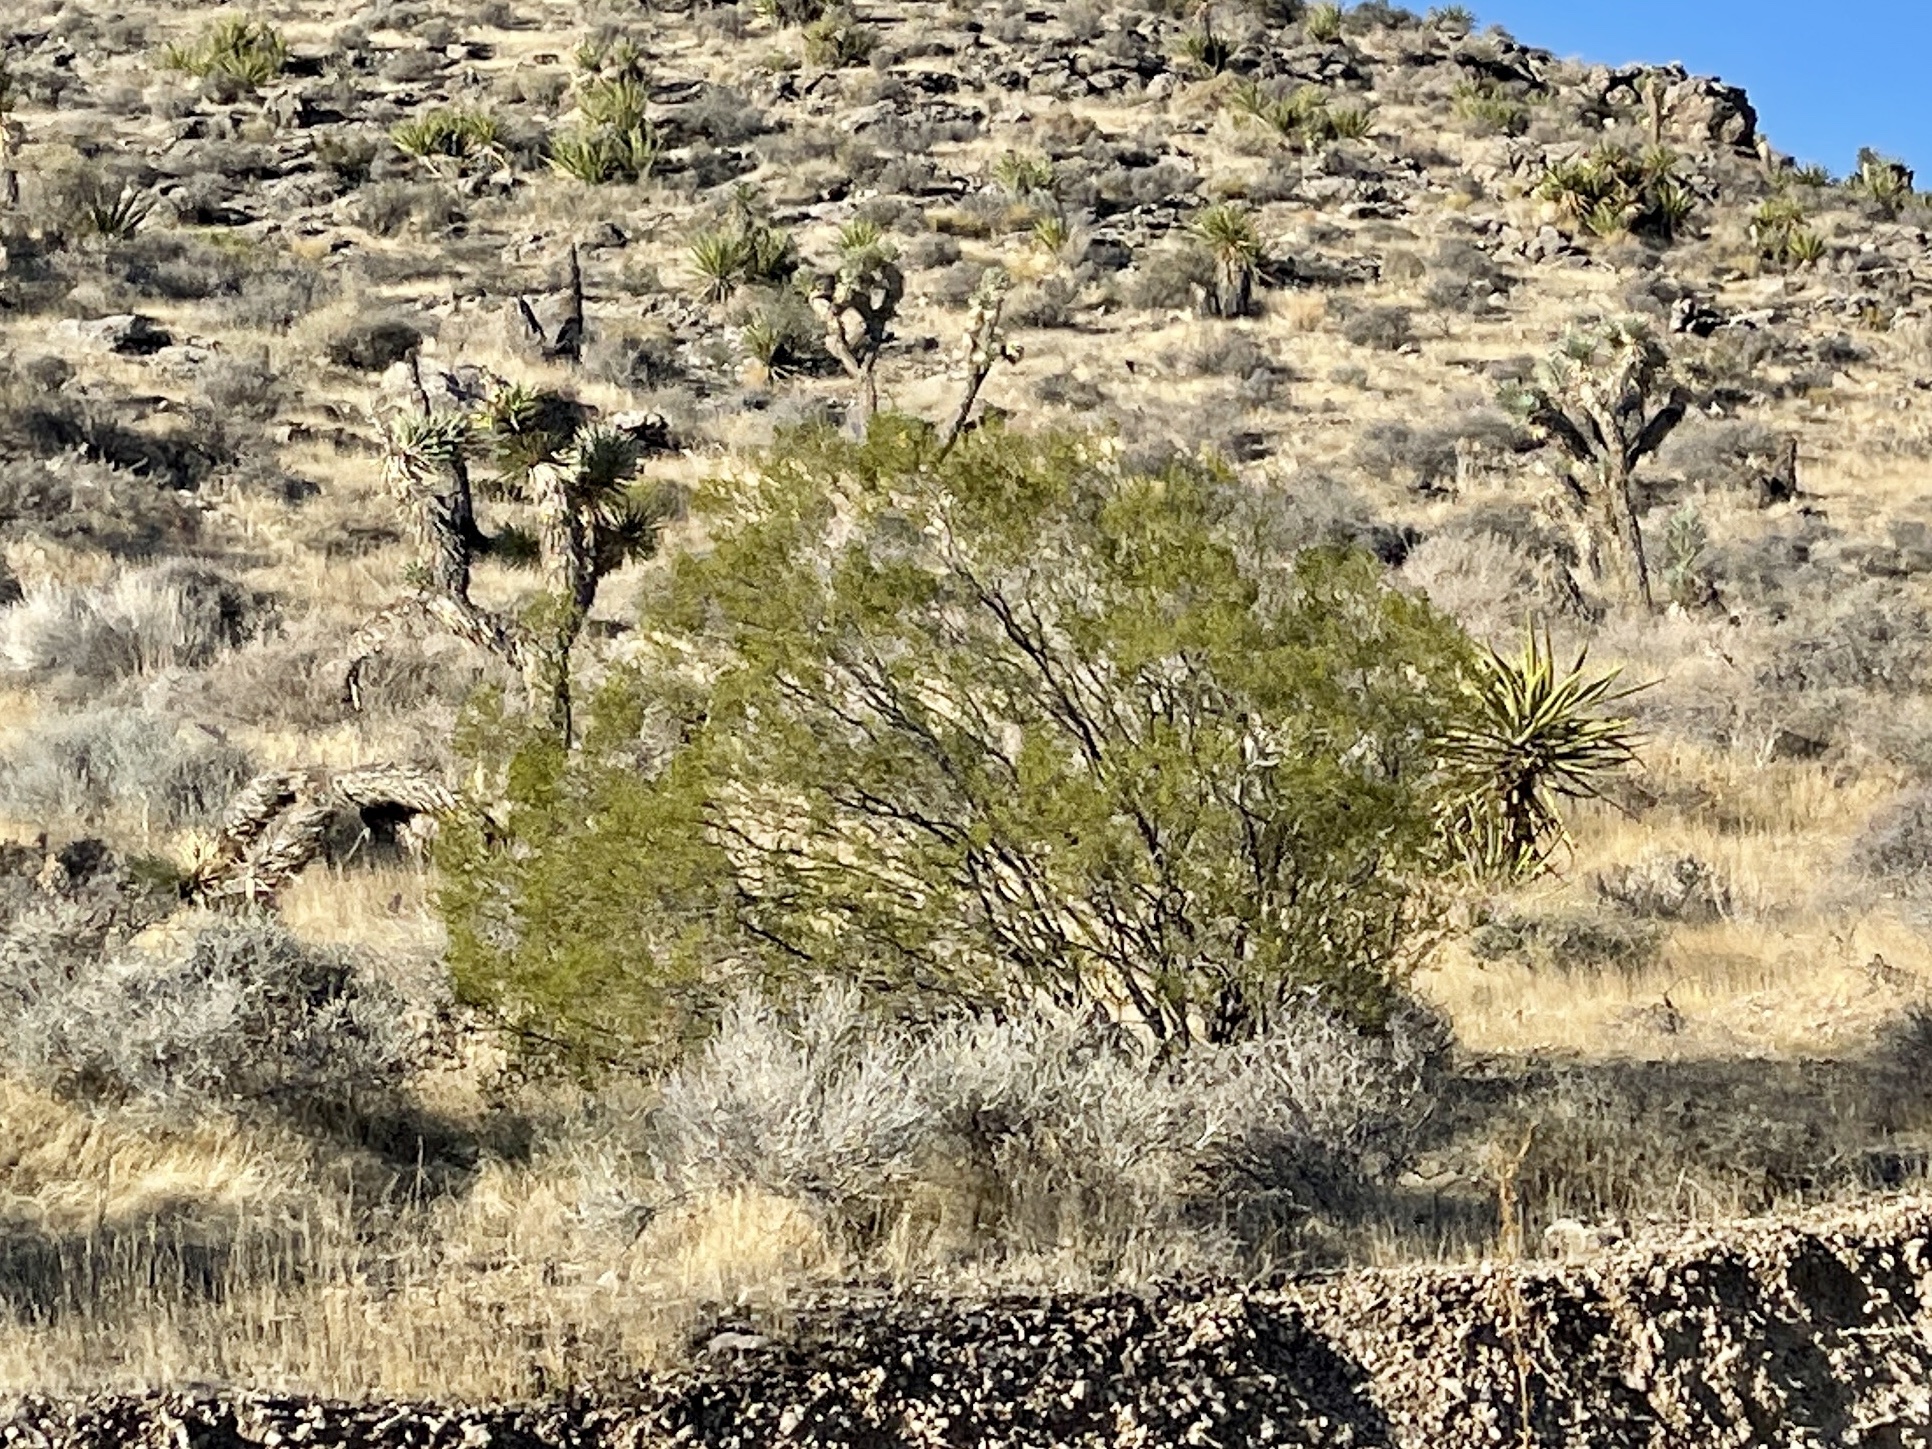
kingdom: Plantae
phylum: Tracheophyta
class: Magnoliopsida
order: Zygophyllales
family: Zygophyllaceae
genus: Larrea
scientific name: Larrea tridentata
